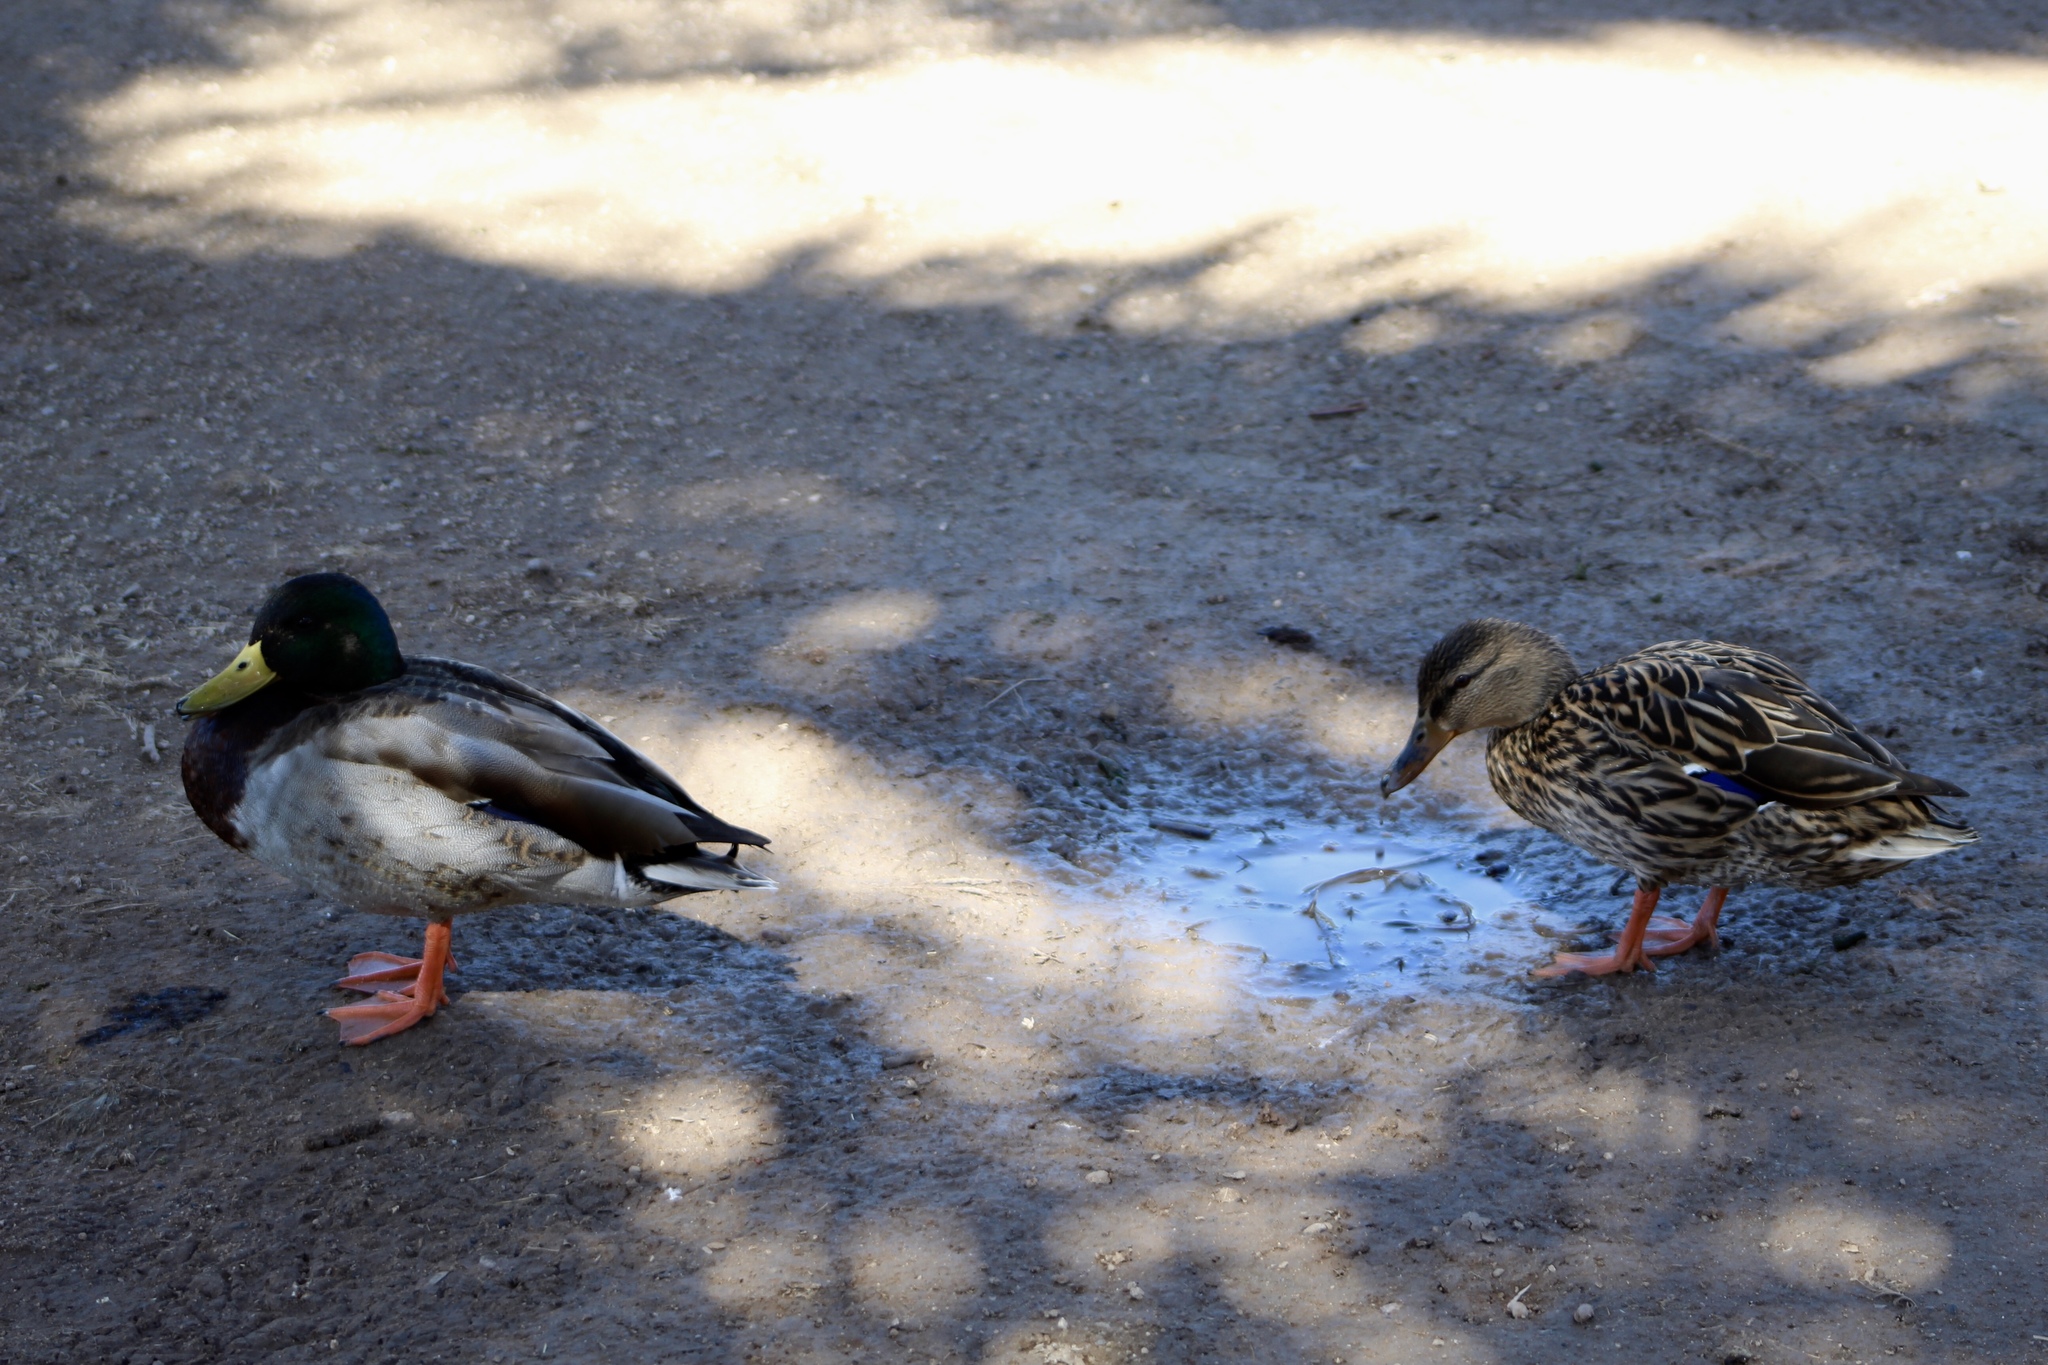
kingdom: Animalia
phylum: Chordata
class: Aves
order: Anseriformes
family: Anatidae
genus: Anas
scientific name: Anas platyrhynchos
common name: Mallard
